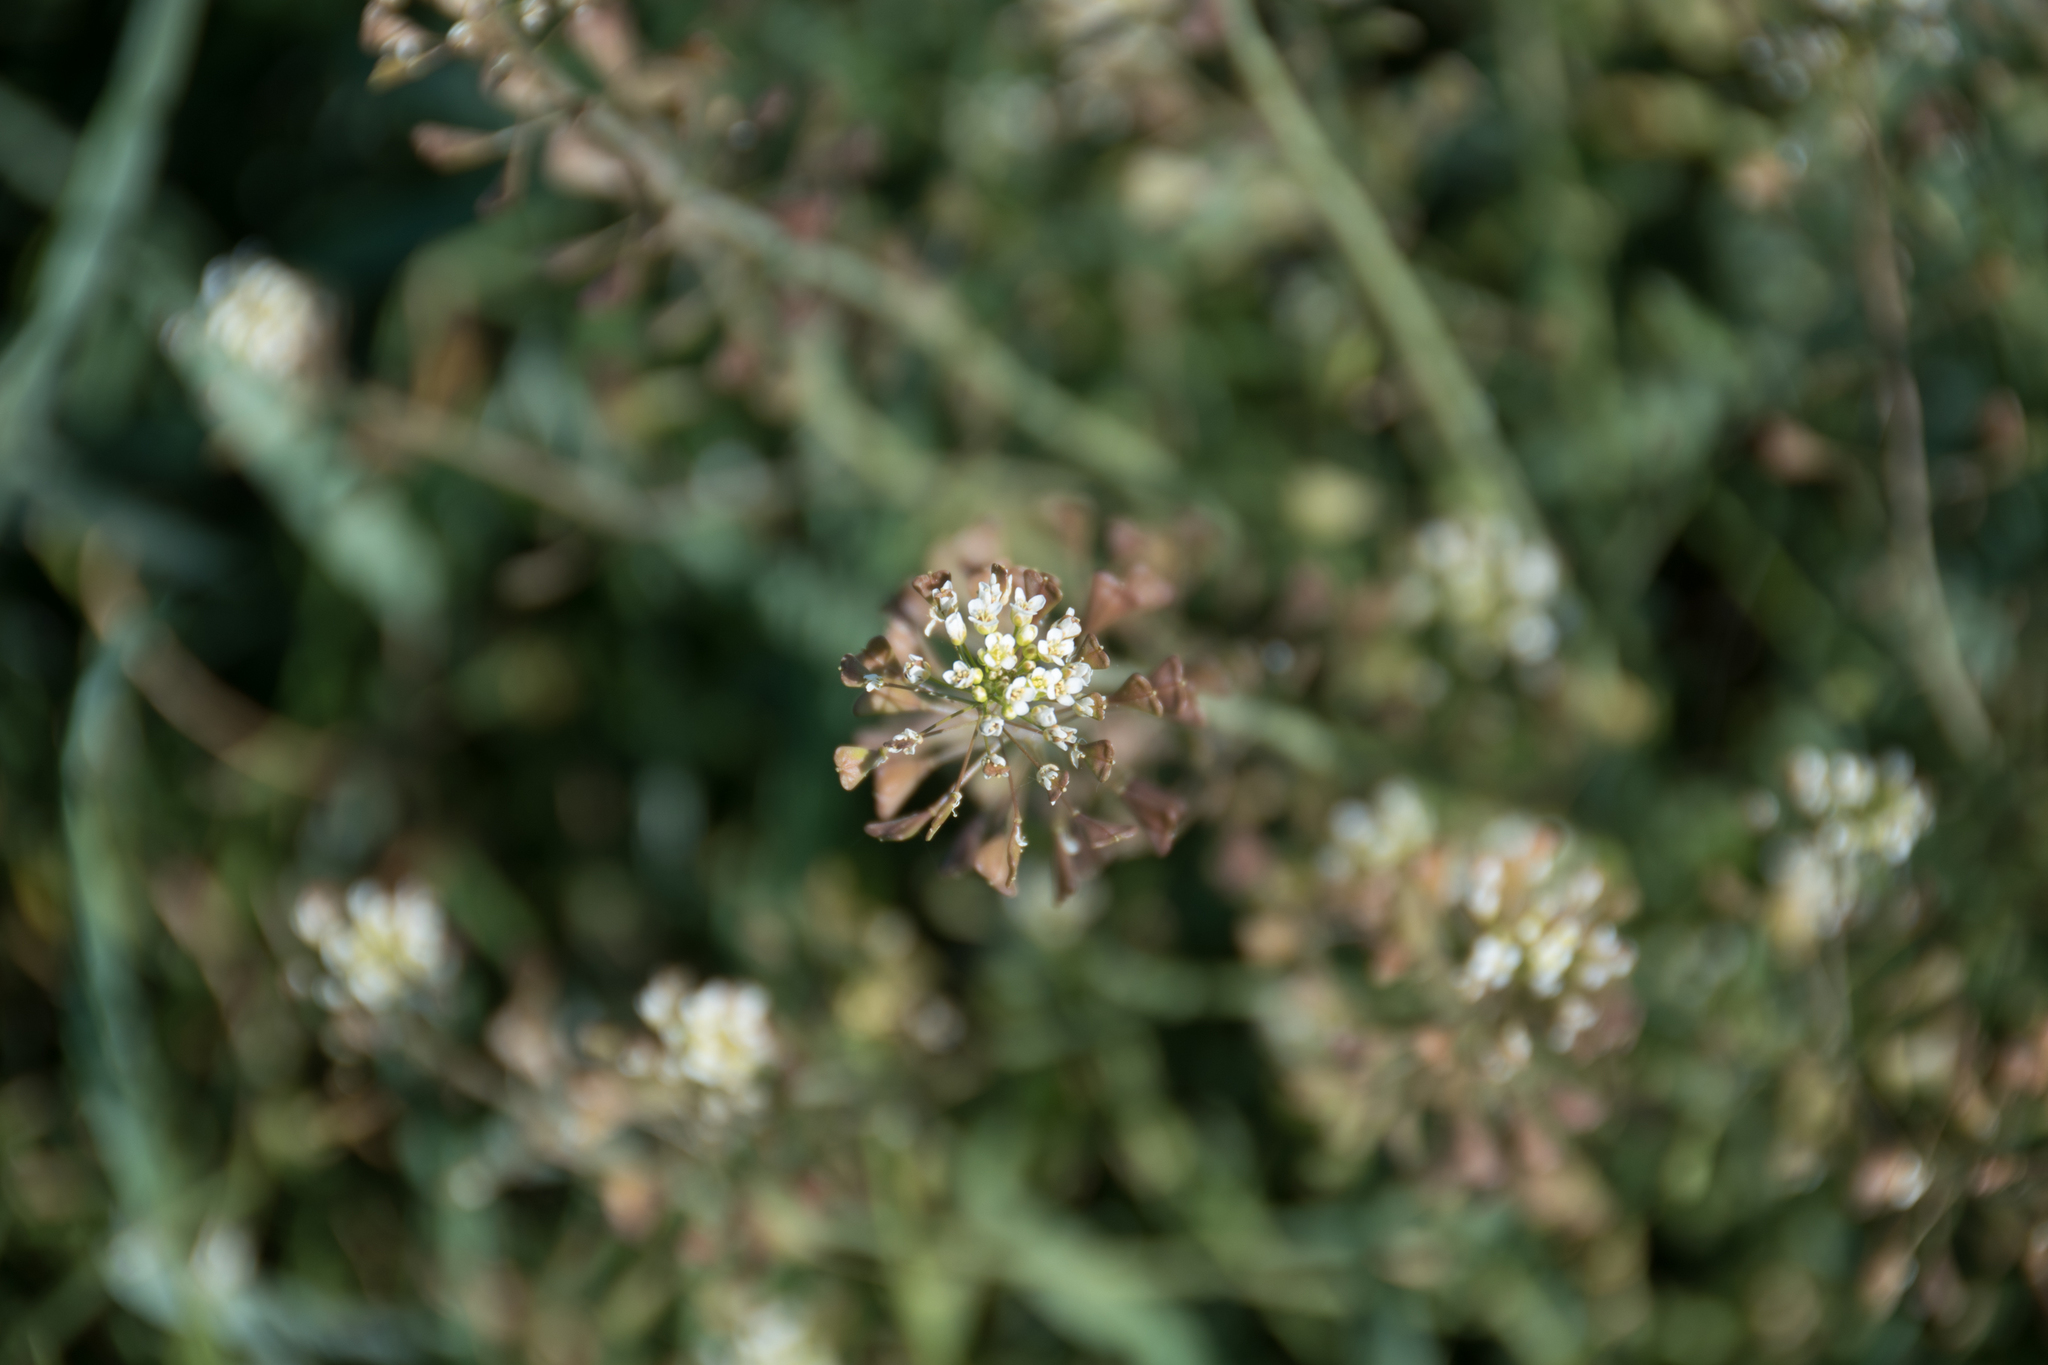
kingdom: Plantae
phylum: Tracheophyta
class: Magnoliopsida
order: Brassicales
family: Brassicaceae
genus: Capsella
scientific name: Capsella bursa-pastoris
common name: Shepherd's purse
